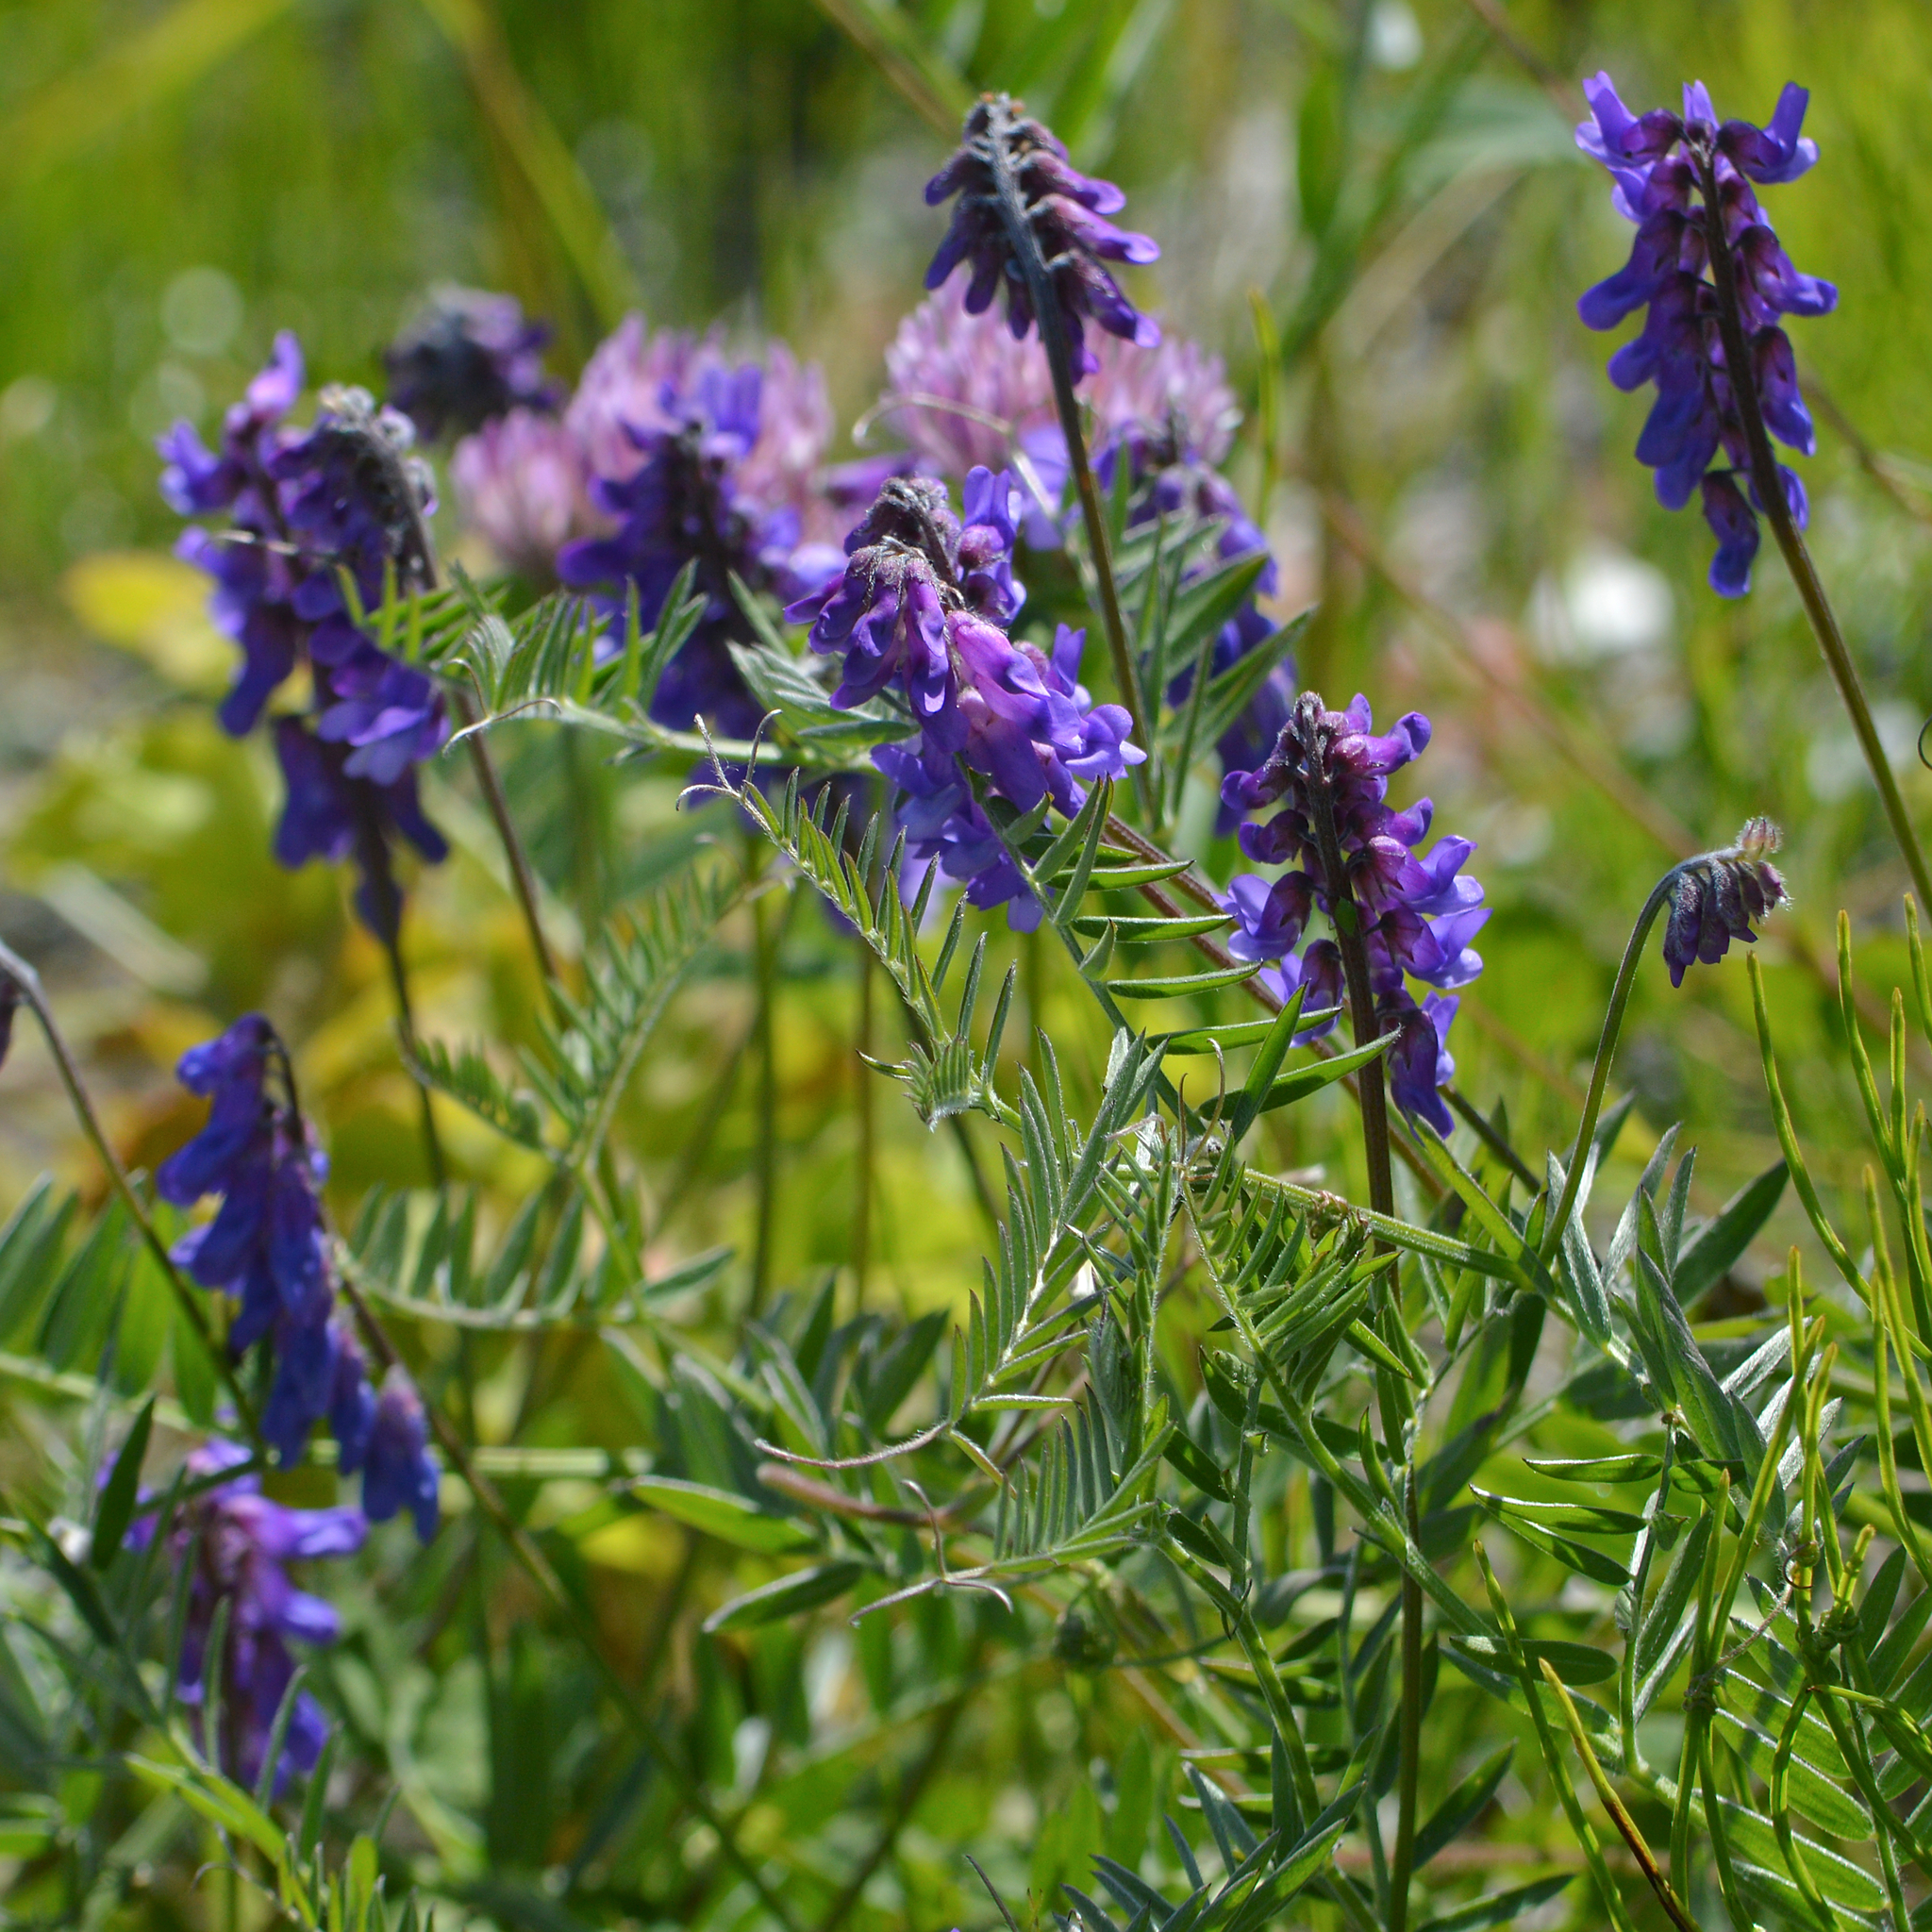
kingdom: Plantae
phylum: Tracheophyta
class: Magnoliopsida
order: Fabales
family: Fabaceae
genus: Vicia
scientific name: Vicia cracca
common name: Bird vetch
